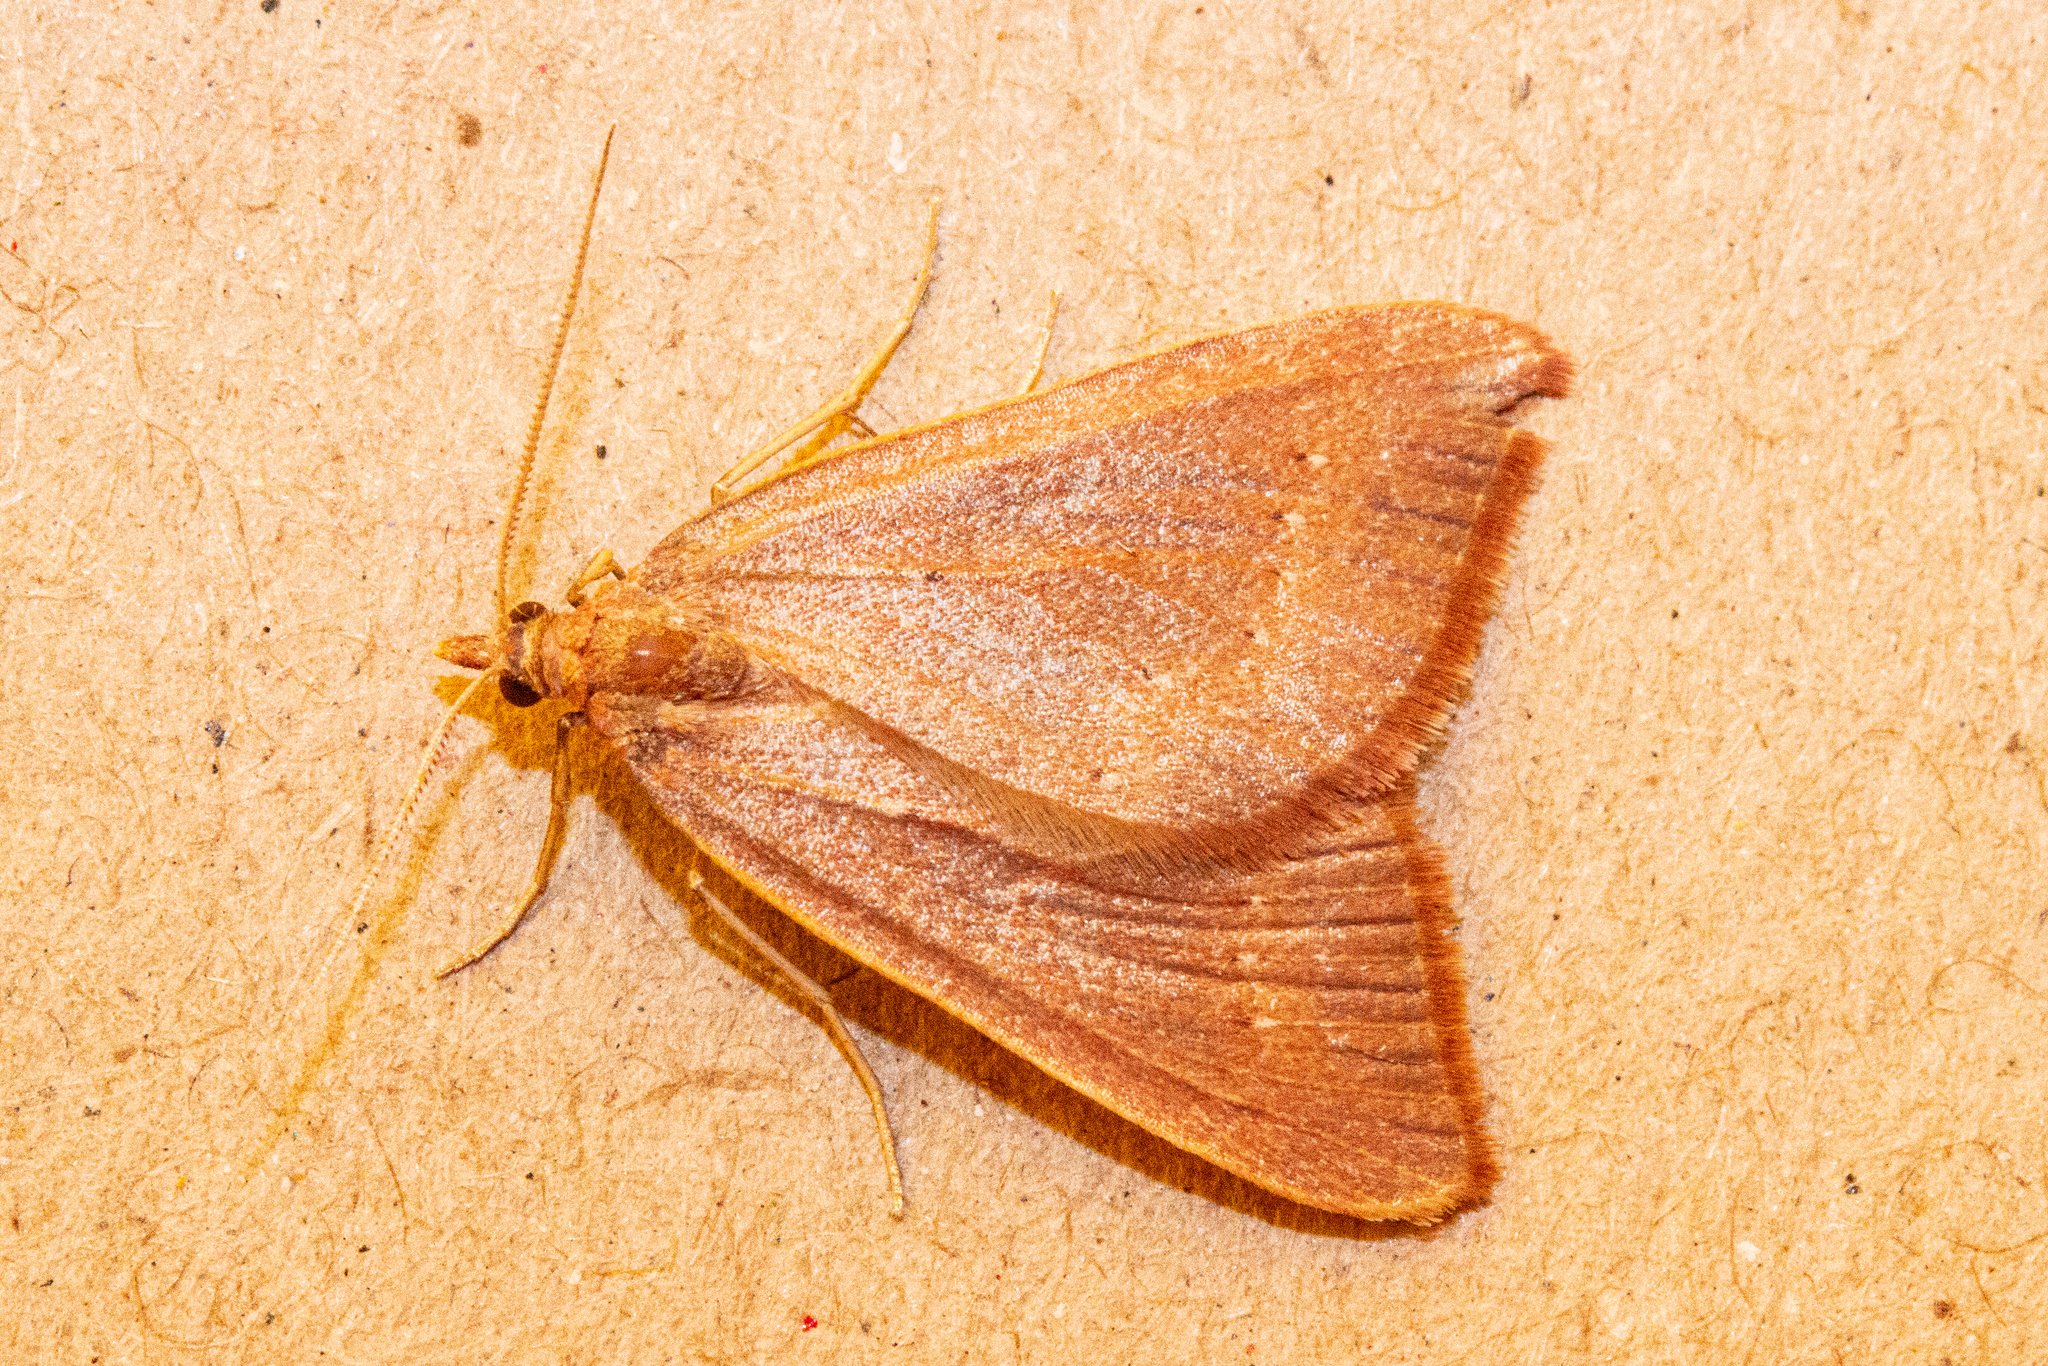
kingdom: Animalia
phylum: Arthropoda
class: Insecta
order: Lepidoptera
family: Geometridae
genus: Xanthorhoe
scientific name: Xanthorhoe occulta
